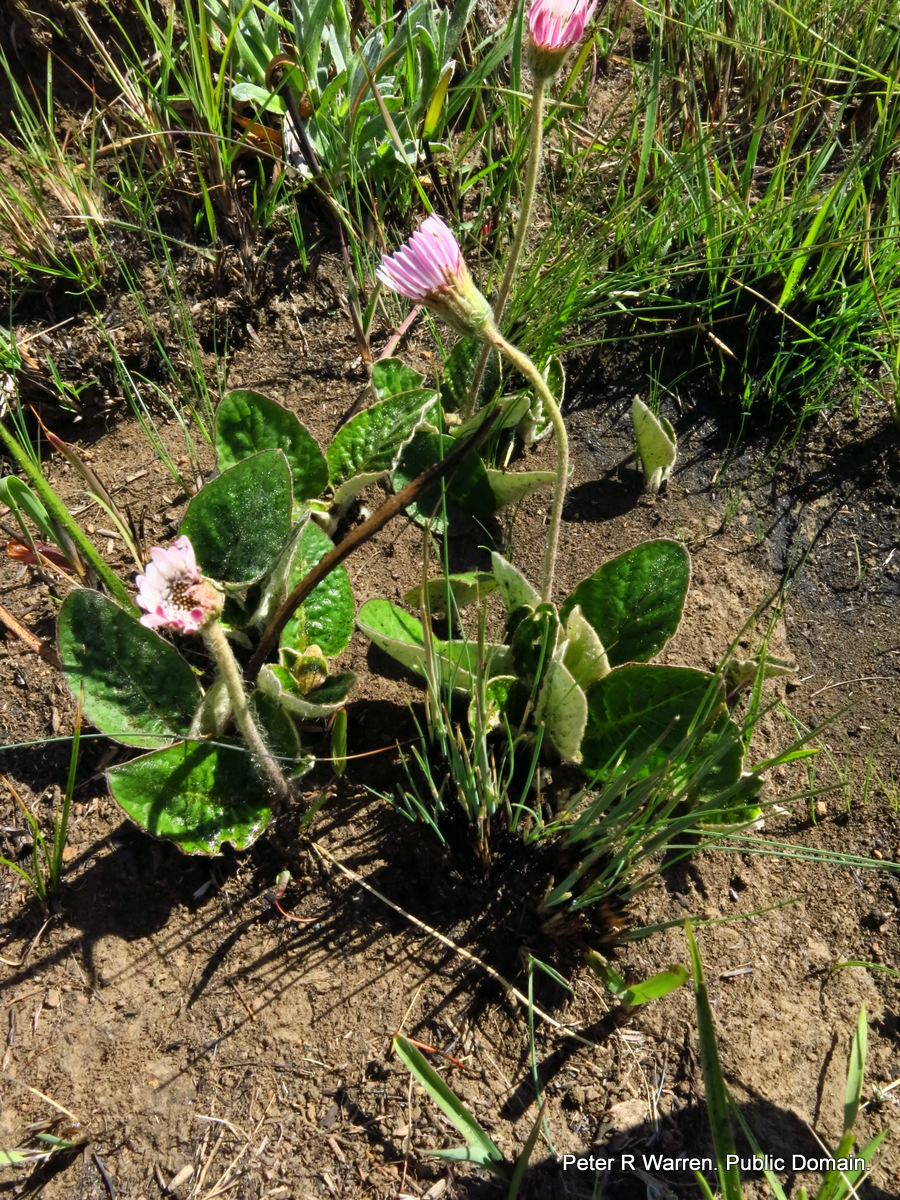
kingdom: Plantae
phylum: Tracheophyta
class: Magnoliopsida
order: Asterales
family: Asteraceae
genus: Gerbera
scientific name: Gerbera ambigua
